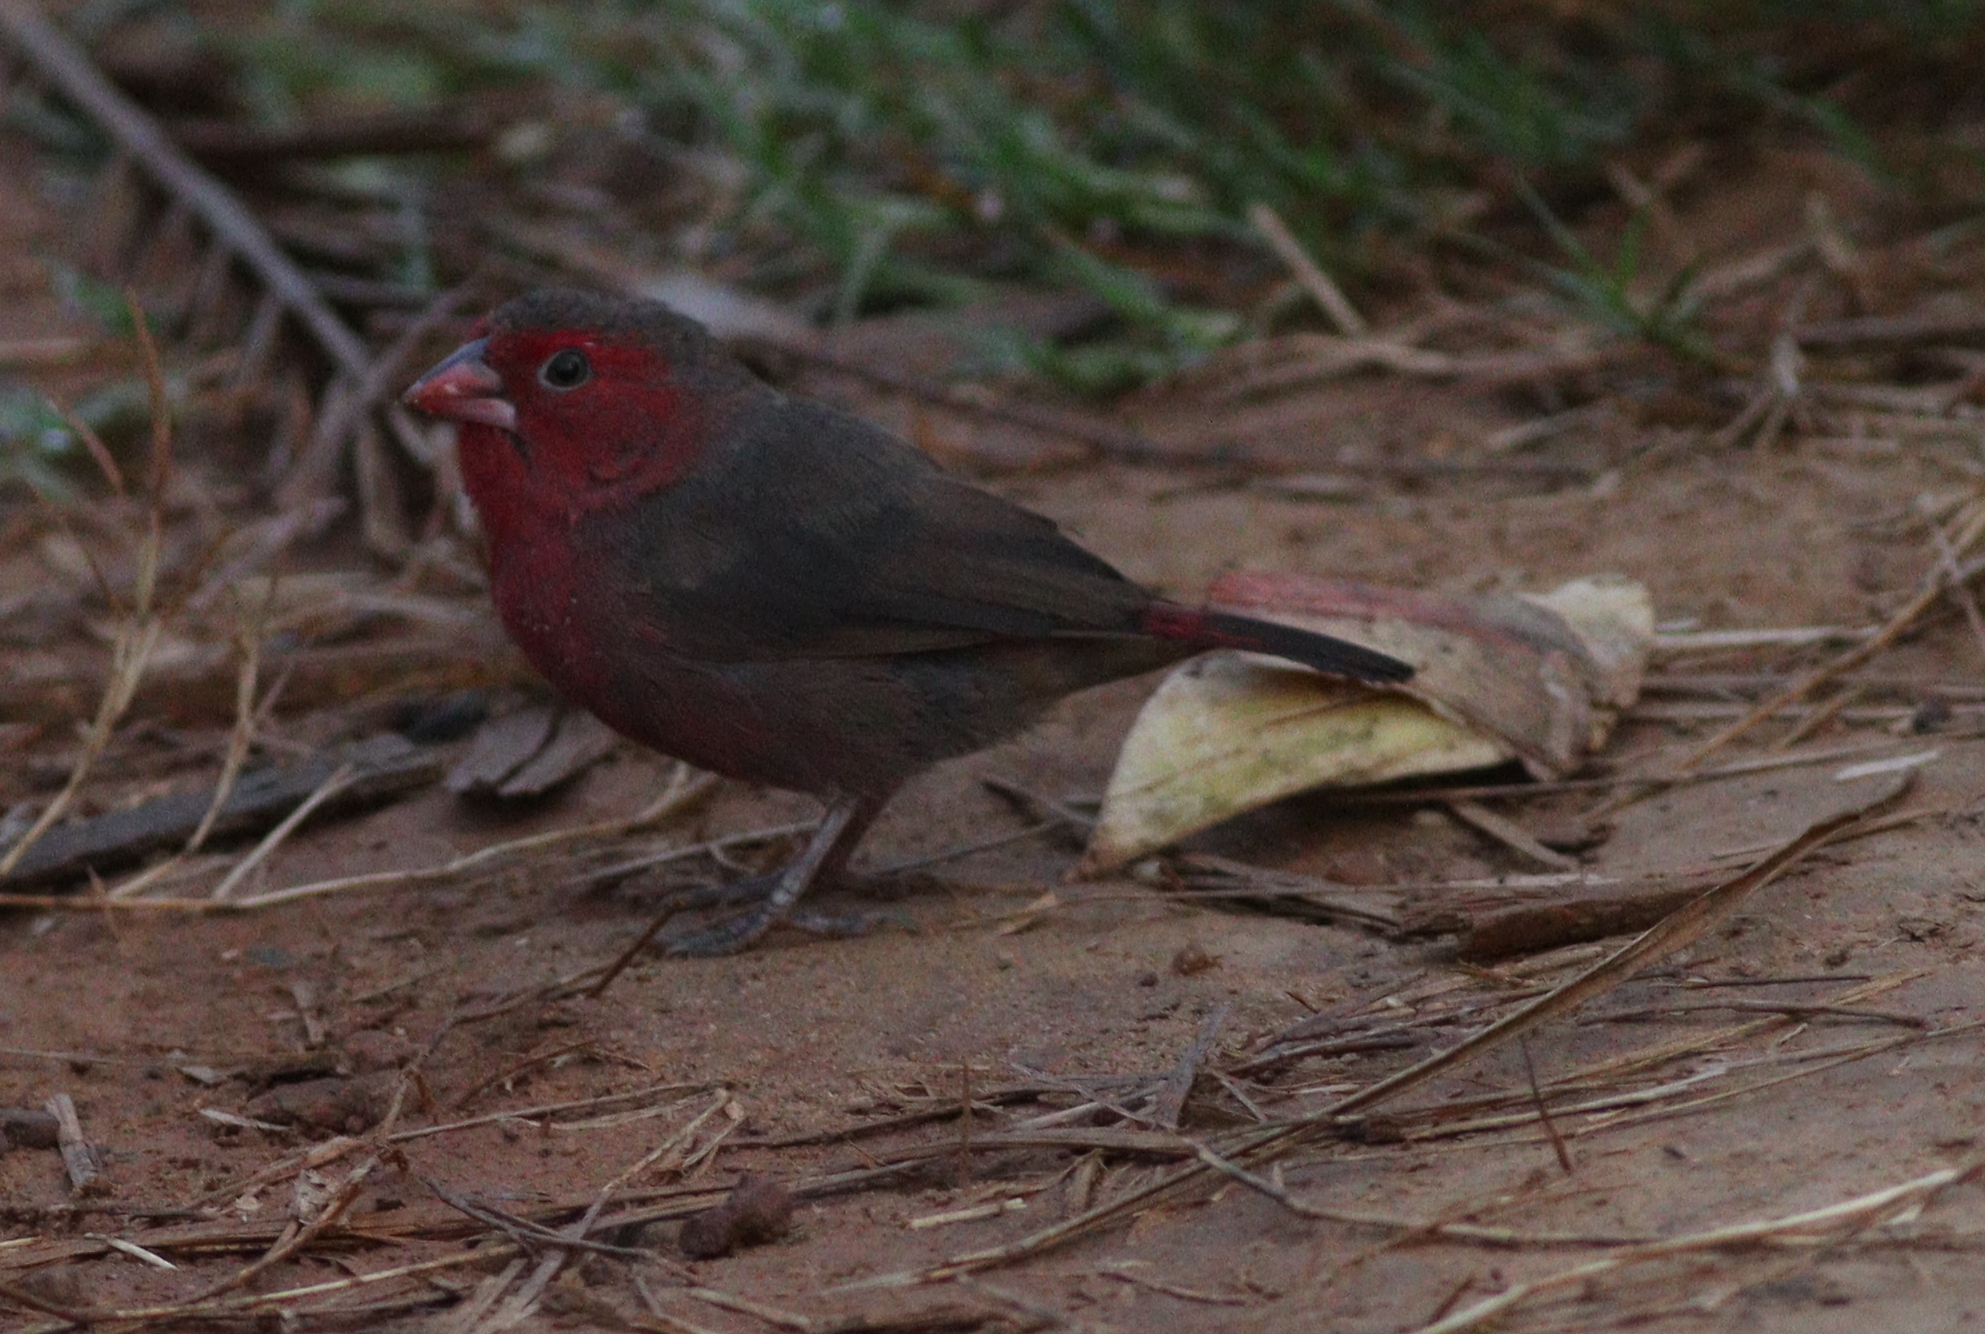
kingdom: Animalia
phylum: Chordata
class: Aves
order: Passeriformes
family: Estrildidae
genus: Lagonosticta
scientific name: Lagonosticta rufopicta
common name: Bar-breasted firefinch
